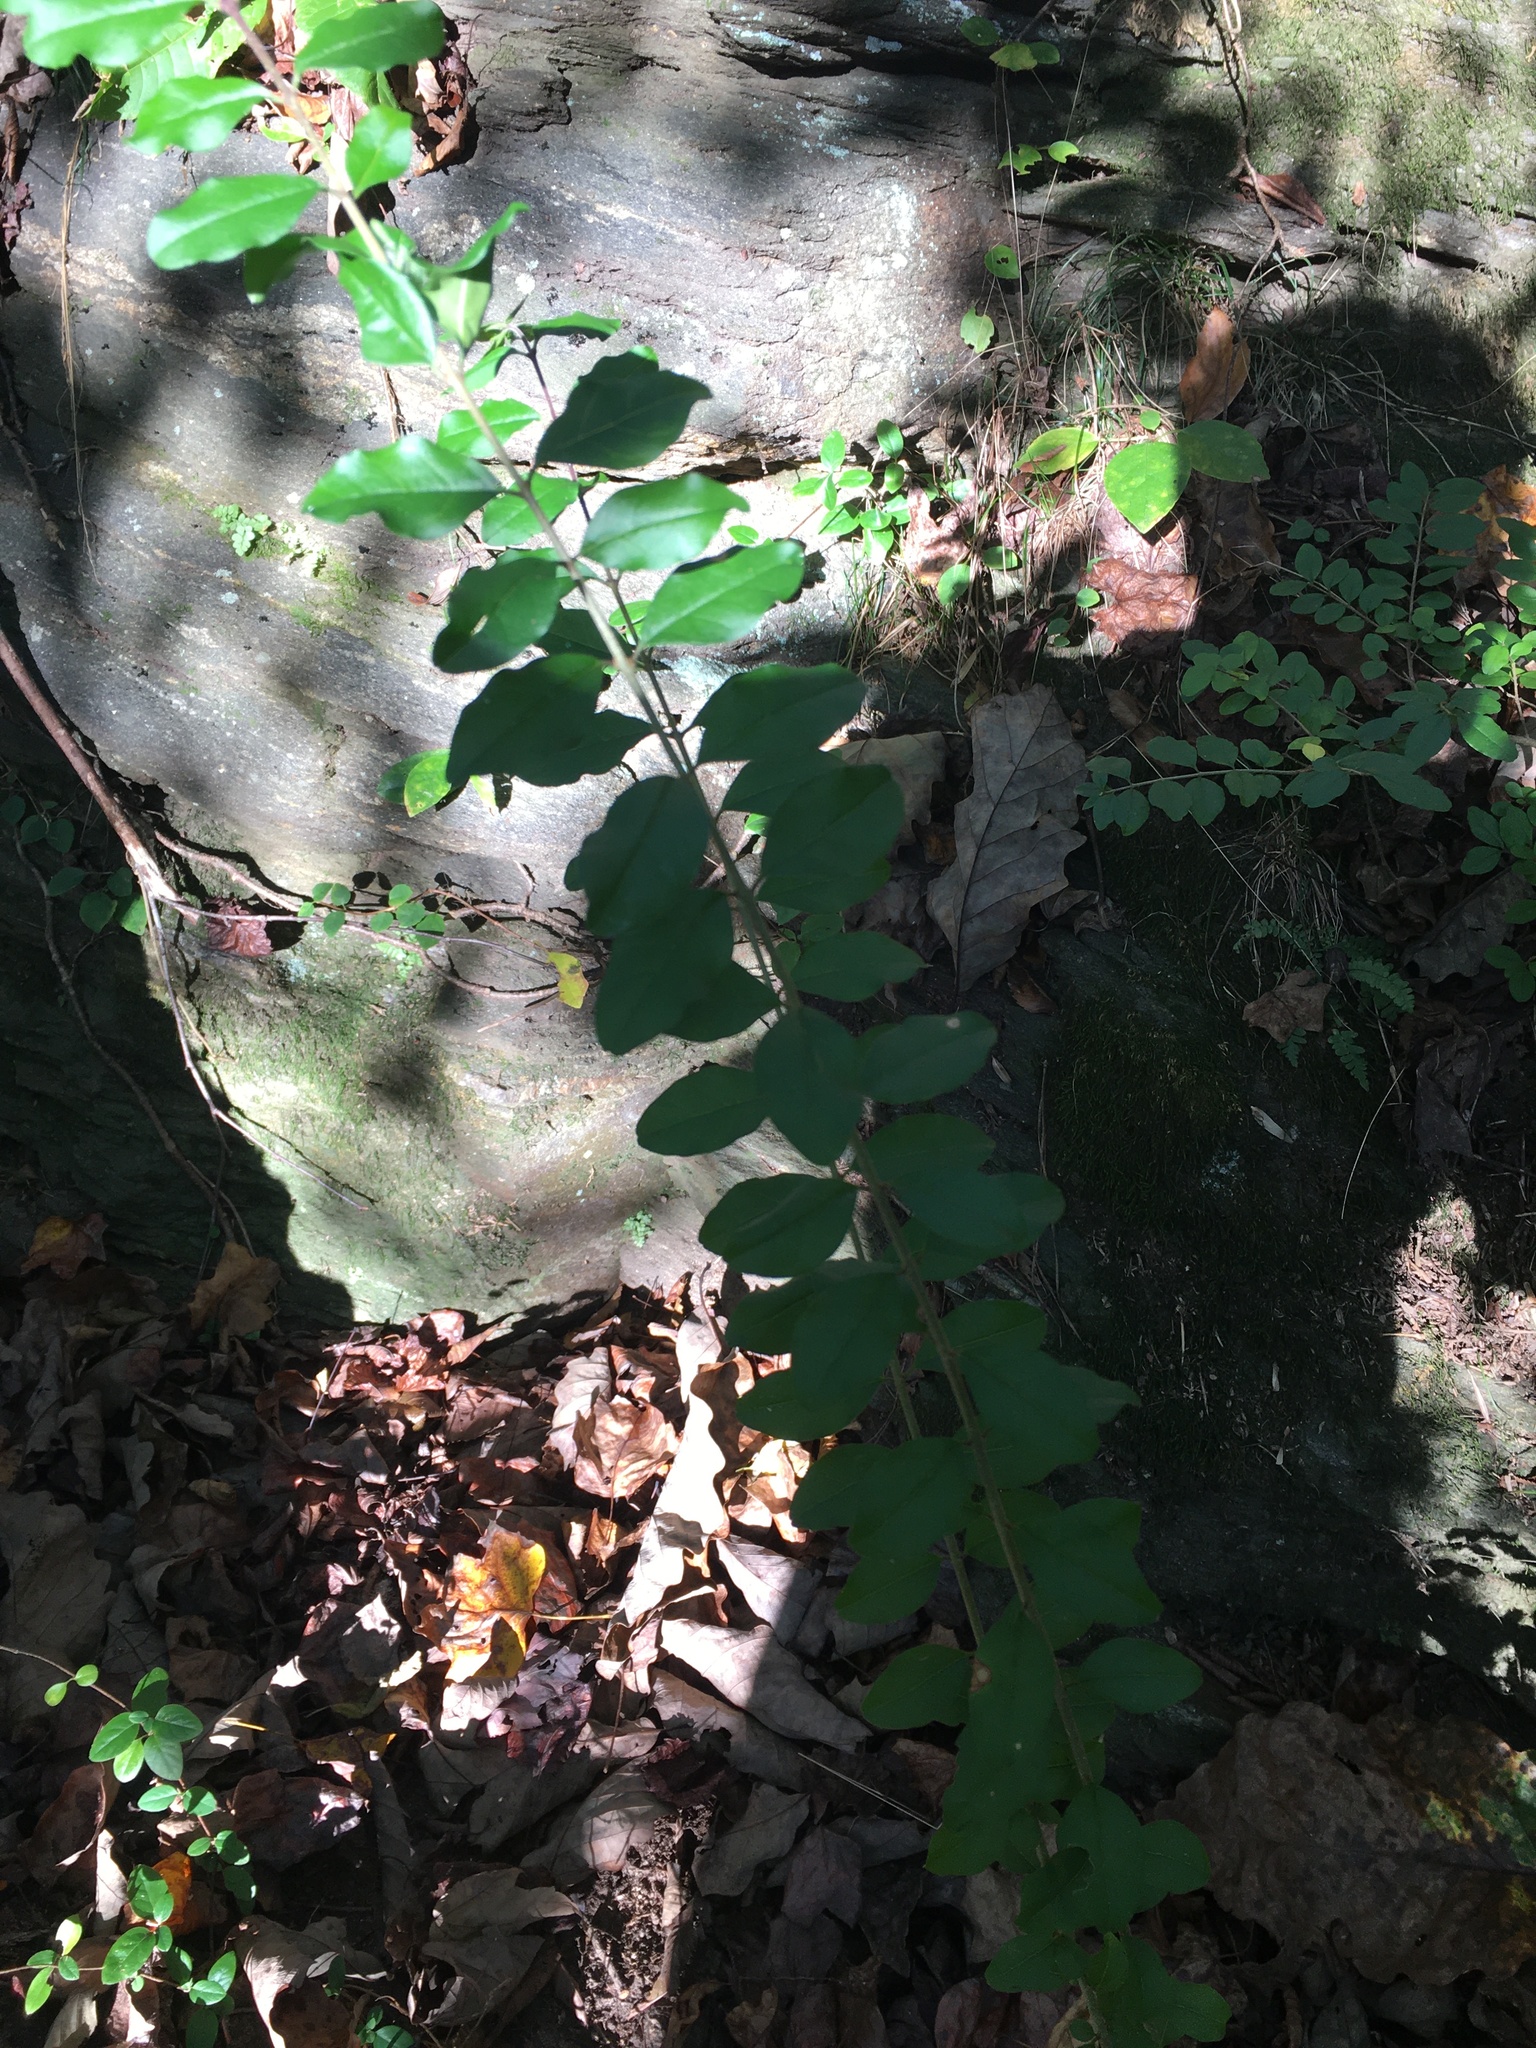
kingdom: Plantae
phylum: Tracheophyta
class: Magnoliopsida
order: Lamiales
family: Oleaceae
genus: Ligustrum
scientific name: Ligustrum sinense
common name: Chinese privet
